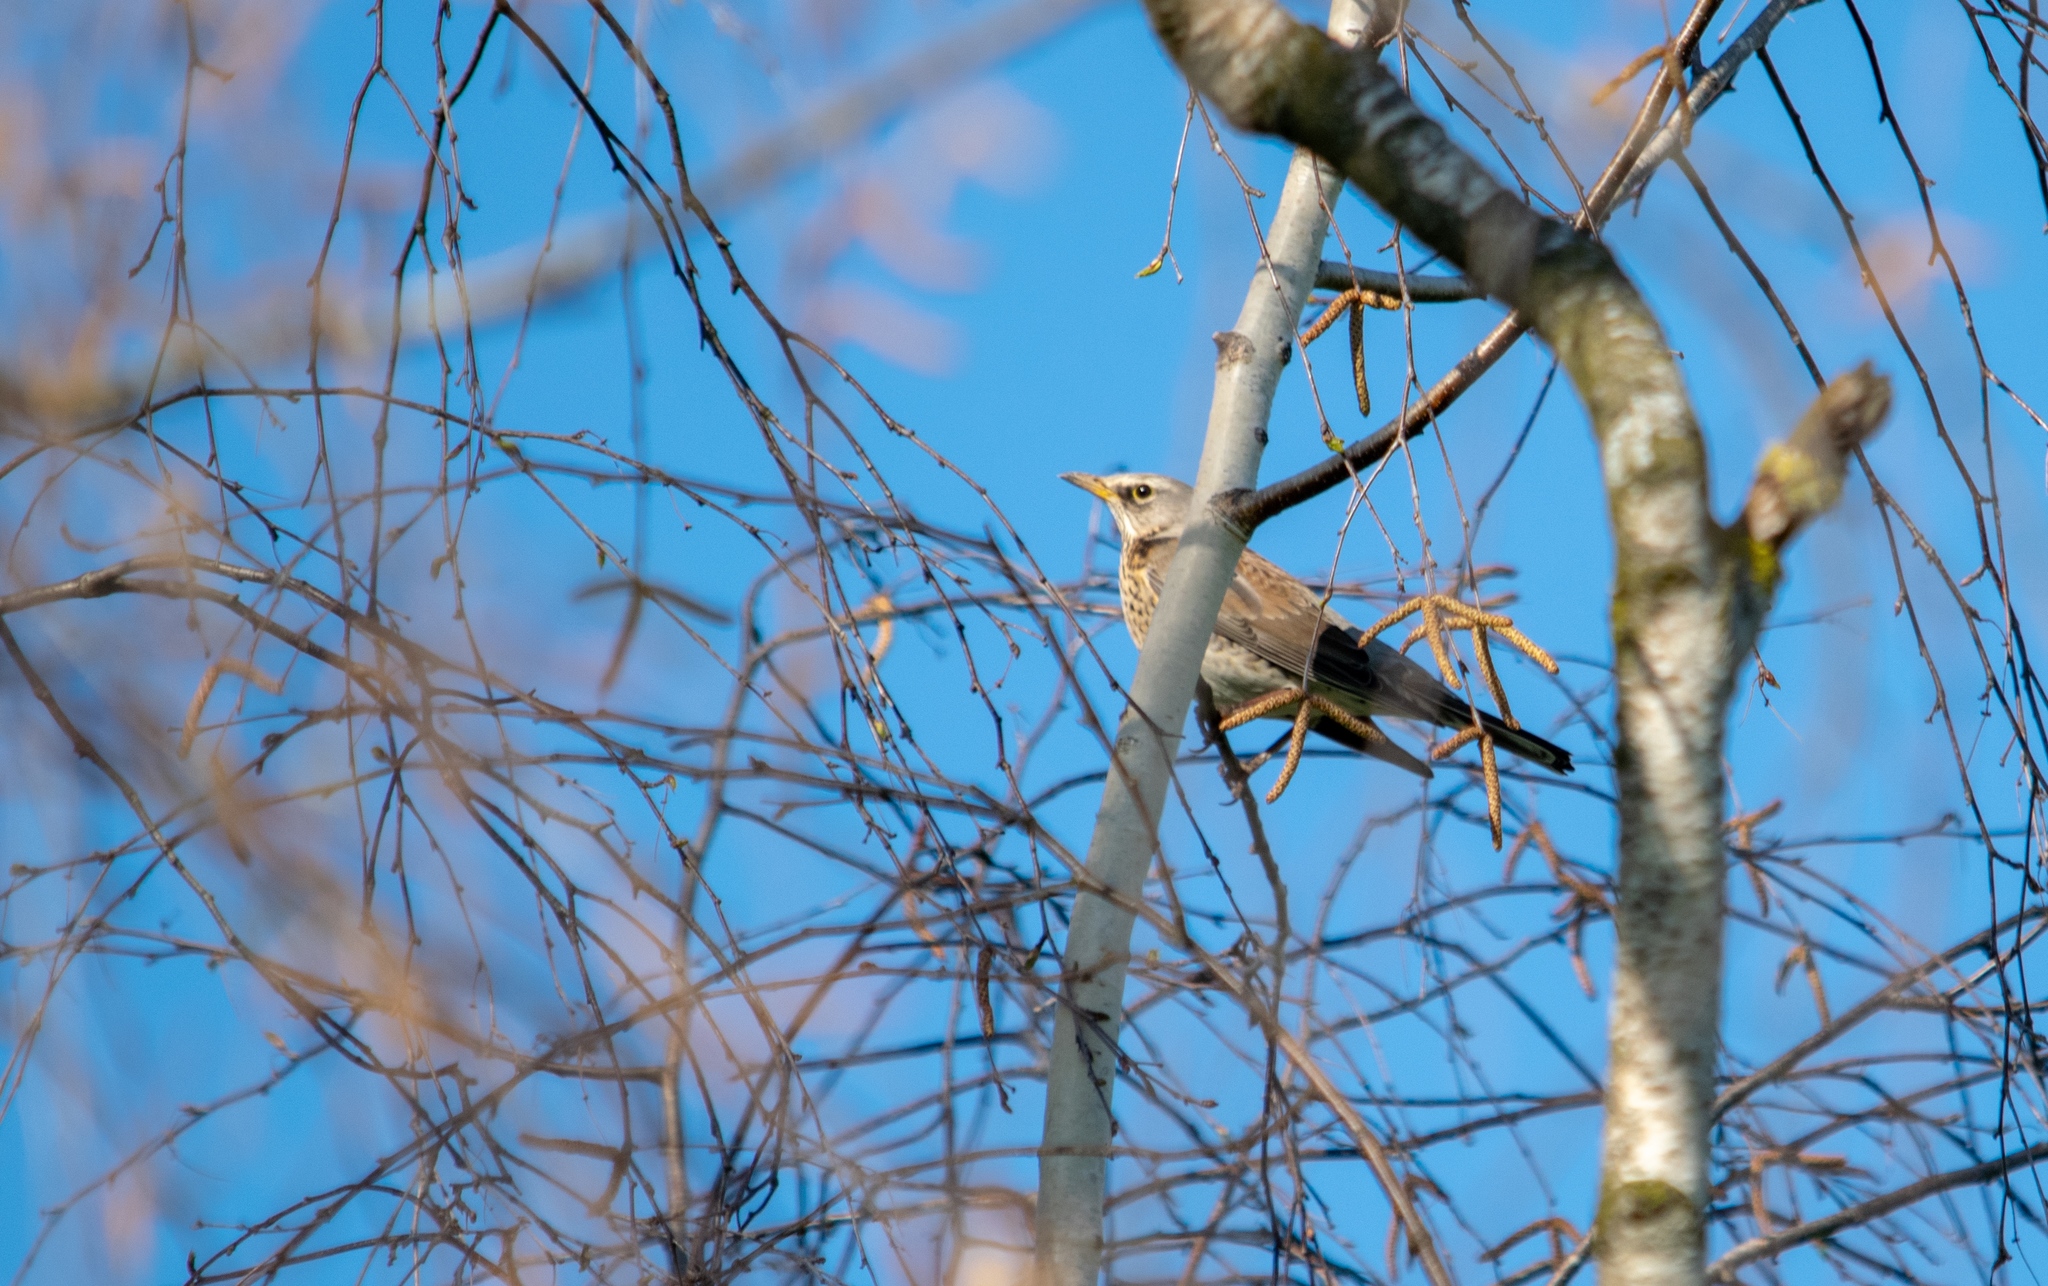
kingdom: Animalia
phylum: Chordata
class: Aves
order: Passeriformes
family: Turdidae
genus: Turdus
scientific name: Turdus pilaris
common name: Fieldfare
